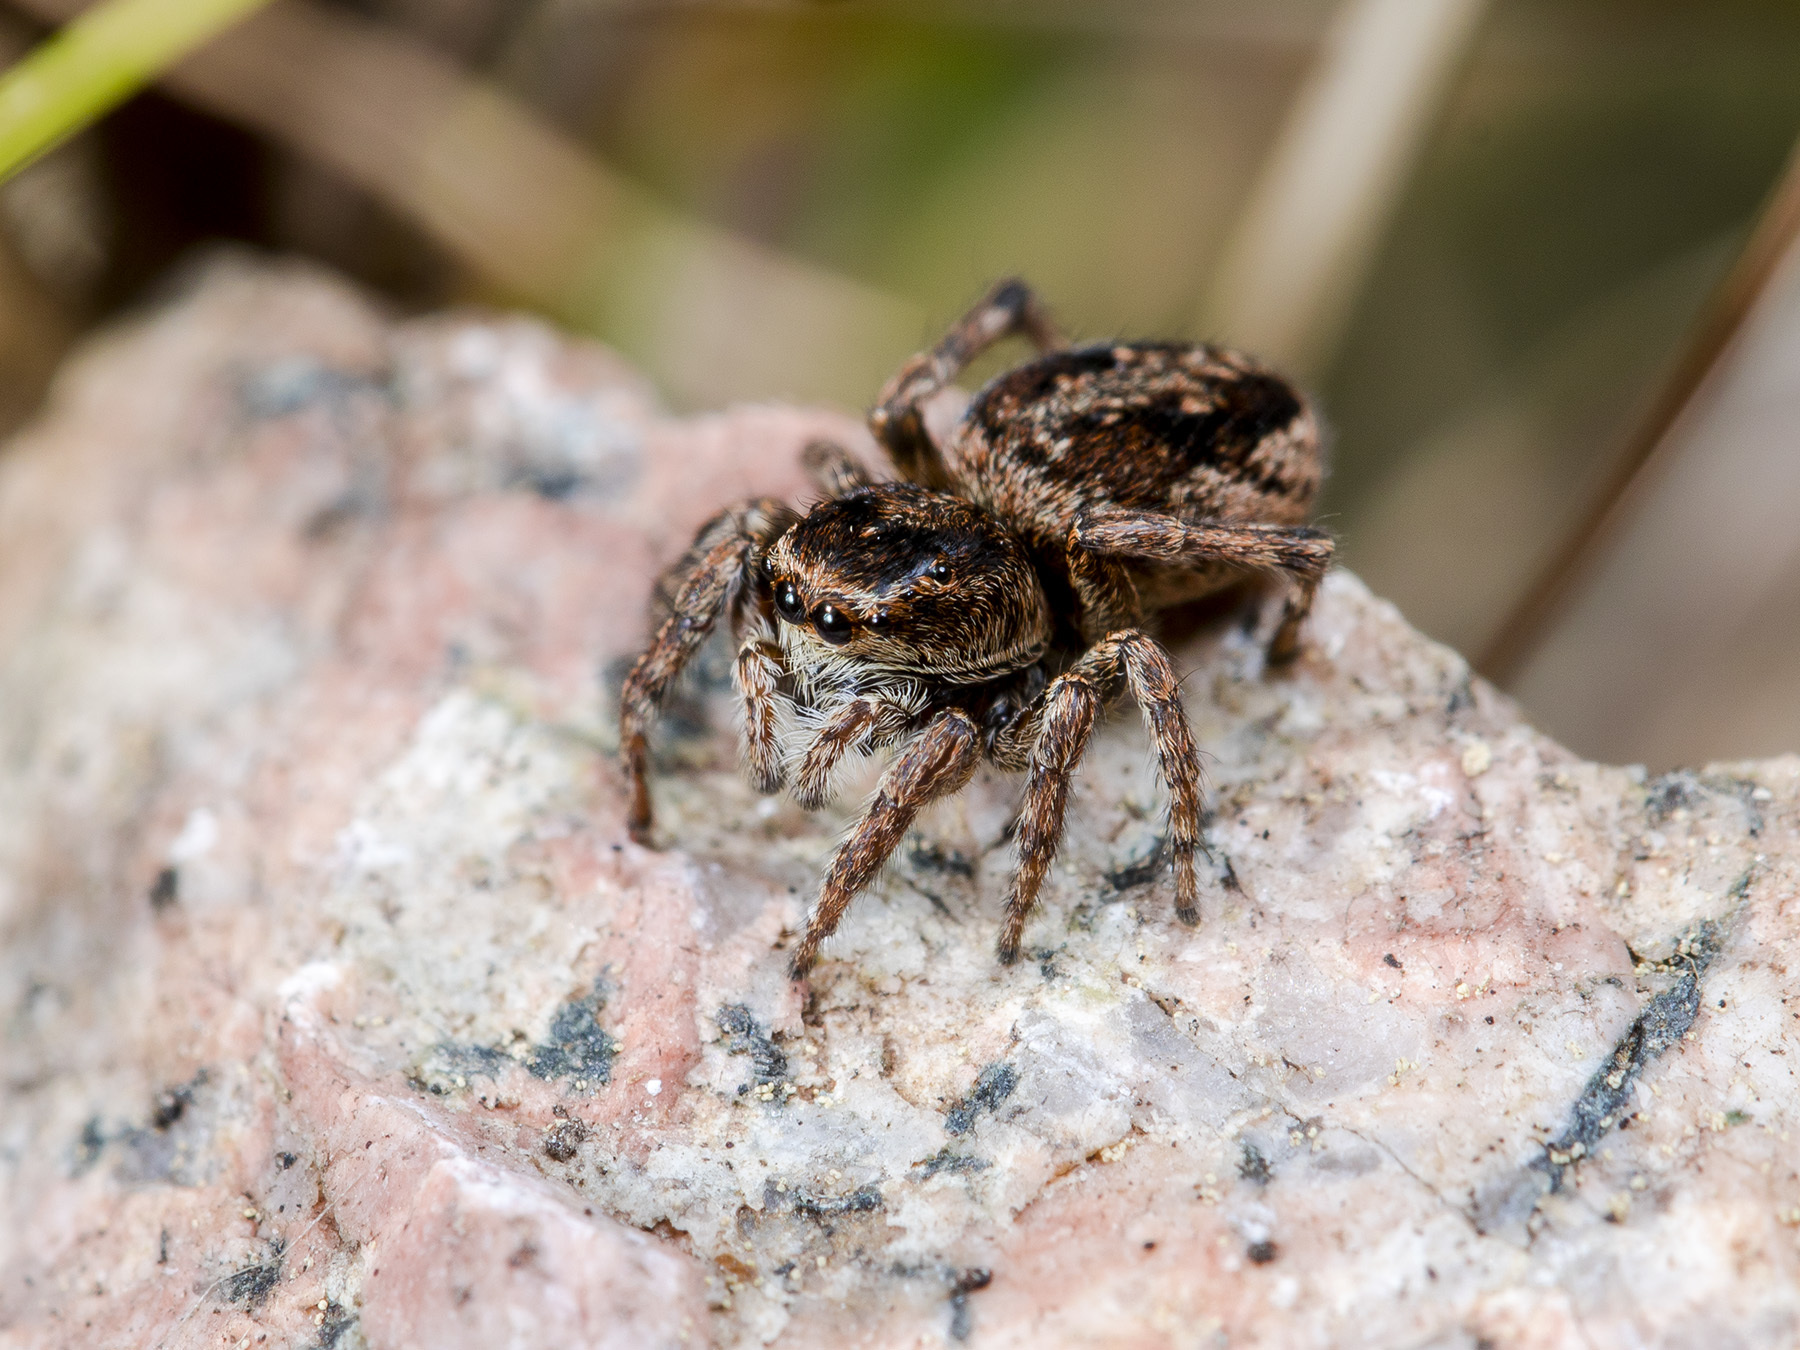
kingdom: Animalia
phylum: Arthropoda
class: Arachnida
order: Araneae
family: Salticidae
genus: Attulus
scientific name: Attulus talgarensis
